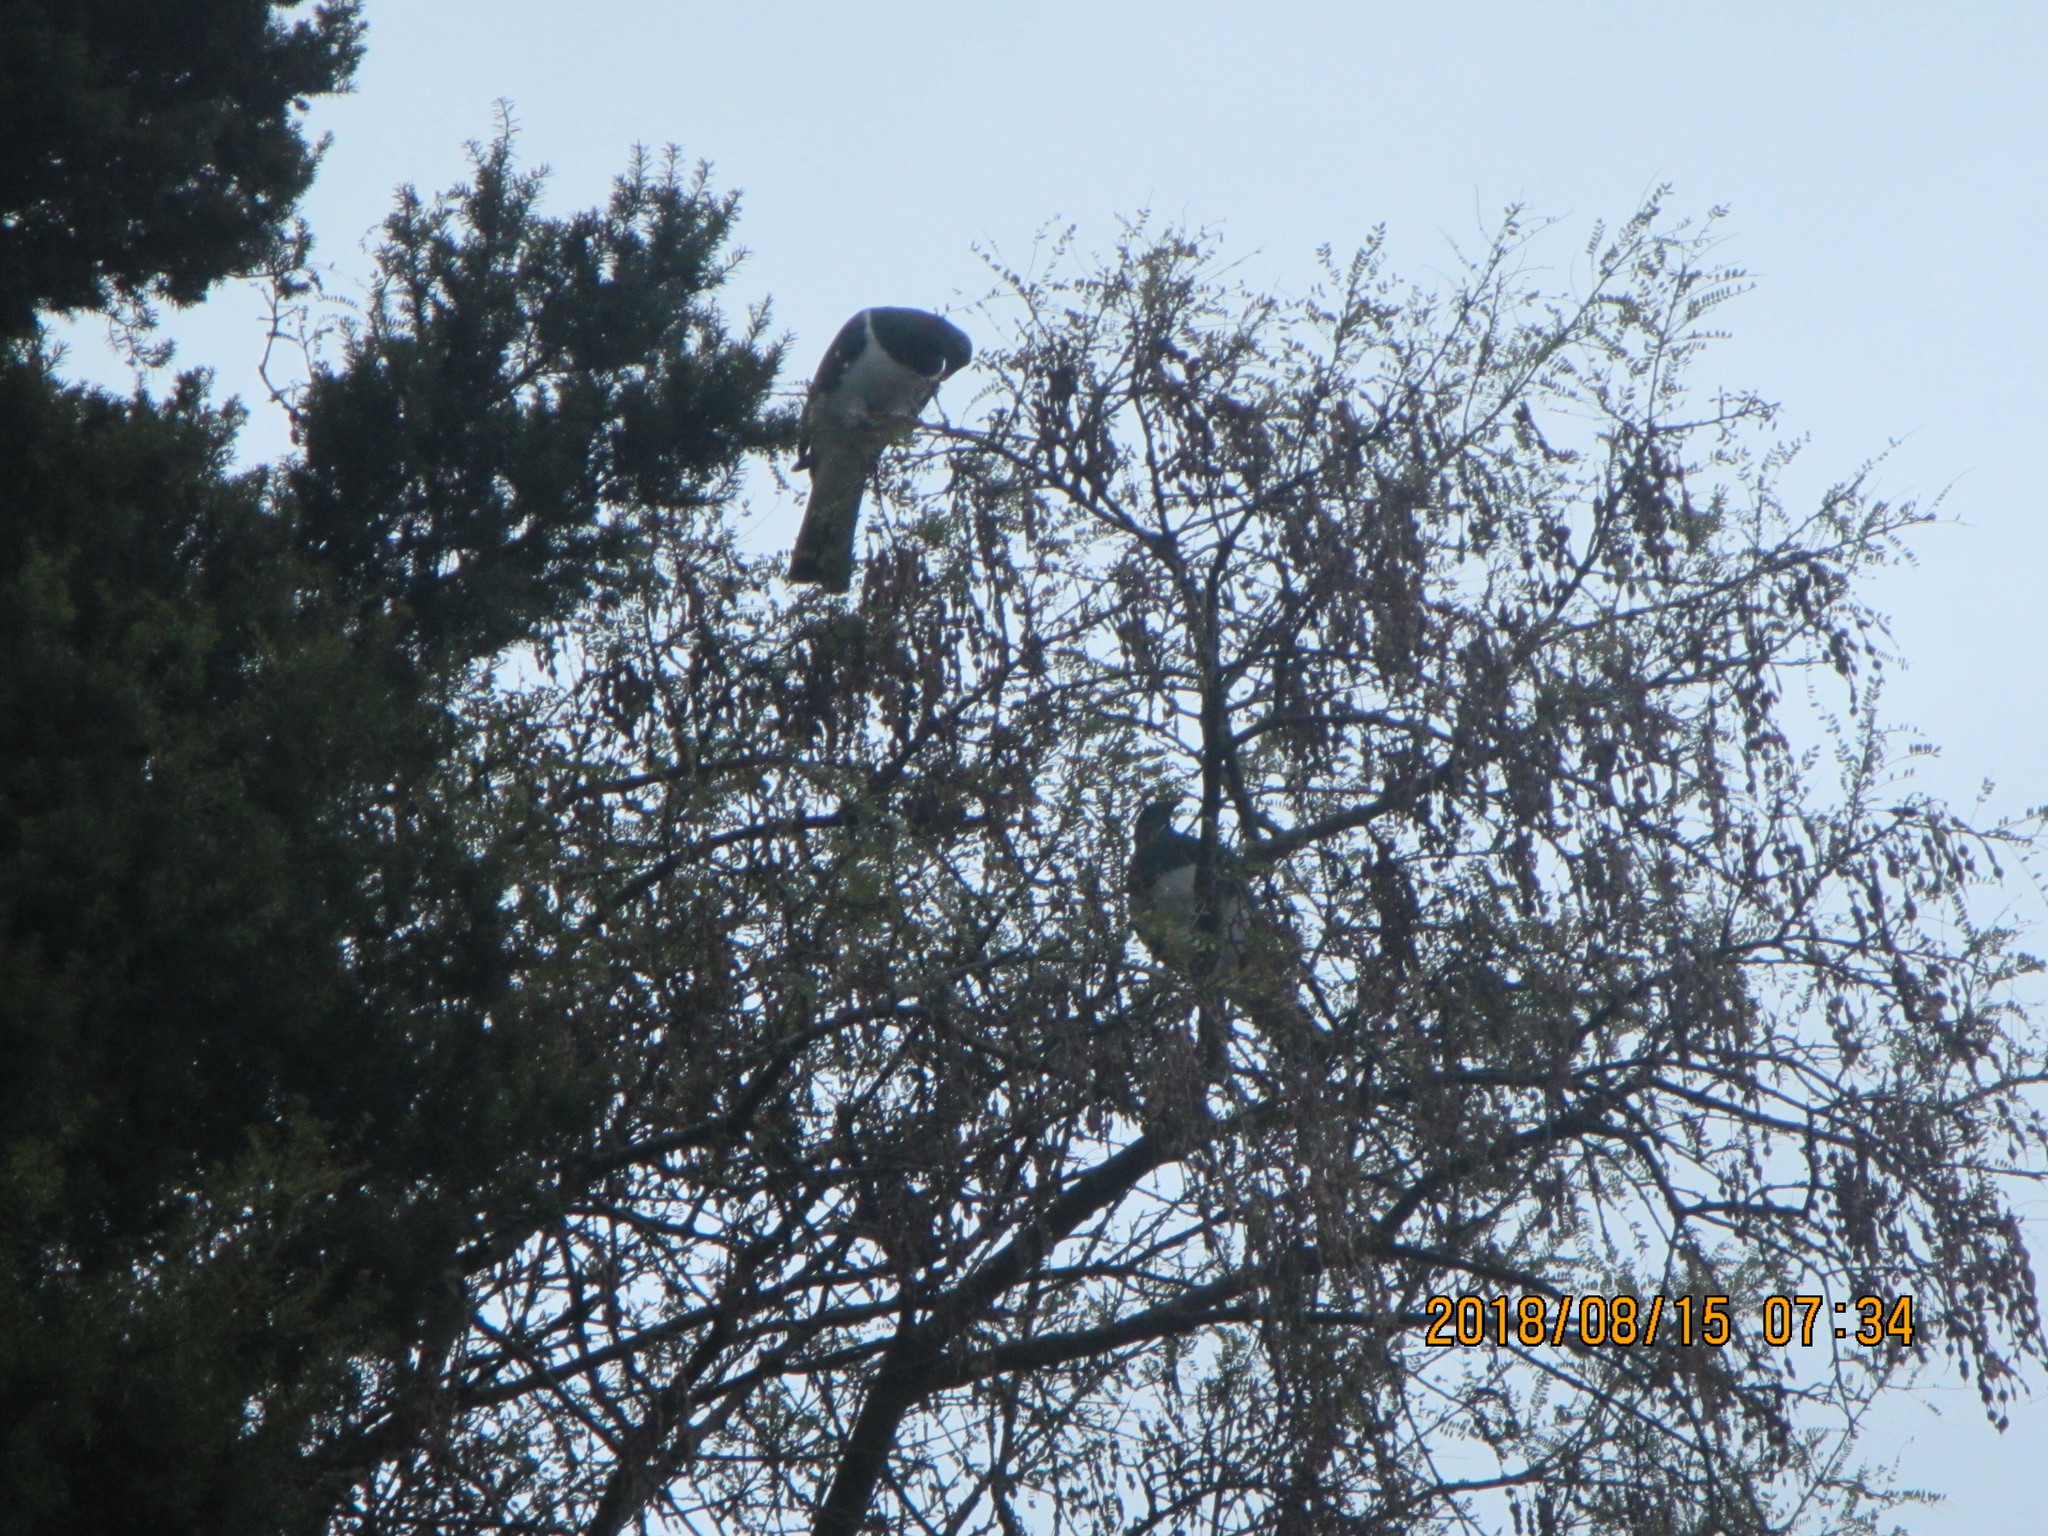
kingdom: Animalia
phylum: Chordata
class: Aves
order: Columbiformes
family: Columbidae
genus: Hemiphaga
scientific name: Hemiphaga novaeseelandiae
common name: New zealand pigeon
